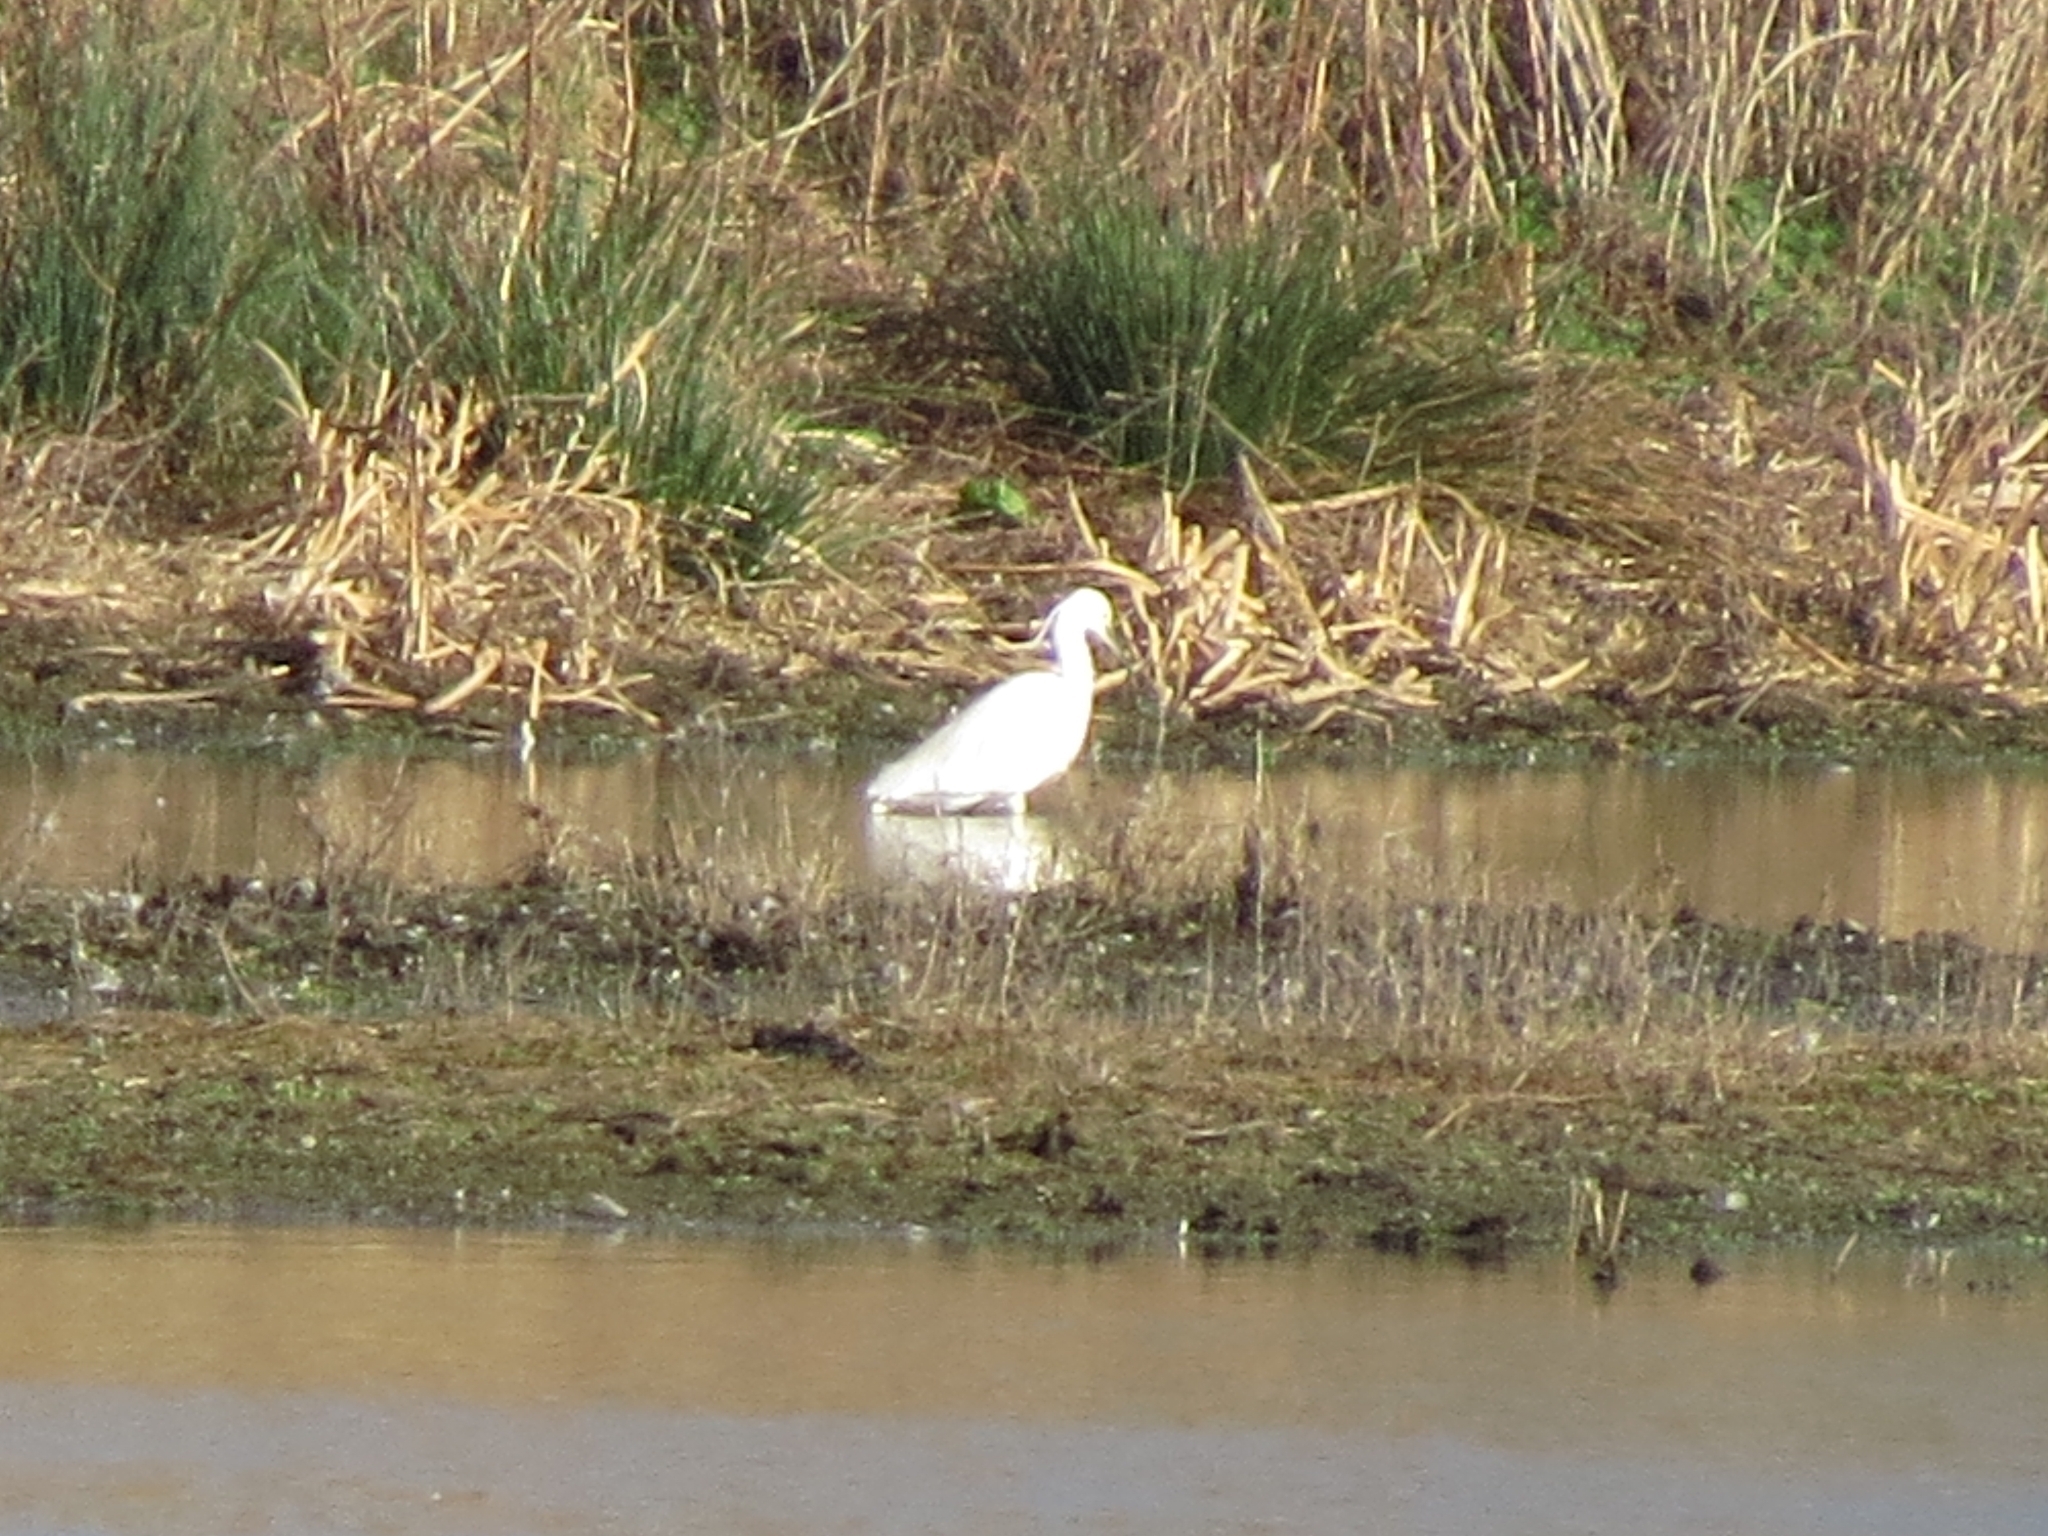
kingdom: Animalia
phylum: Chordata
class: Aves
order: Pelecaniformes
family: Ardeidae
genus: Egretta
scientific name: Egretta garzetta
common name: Little egret
